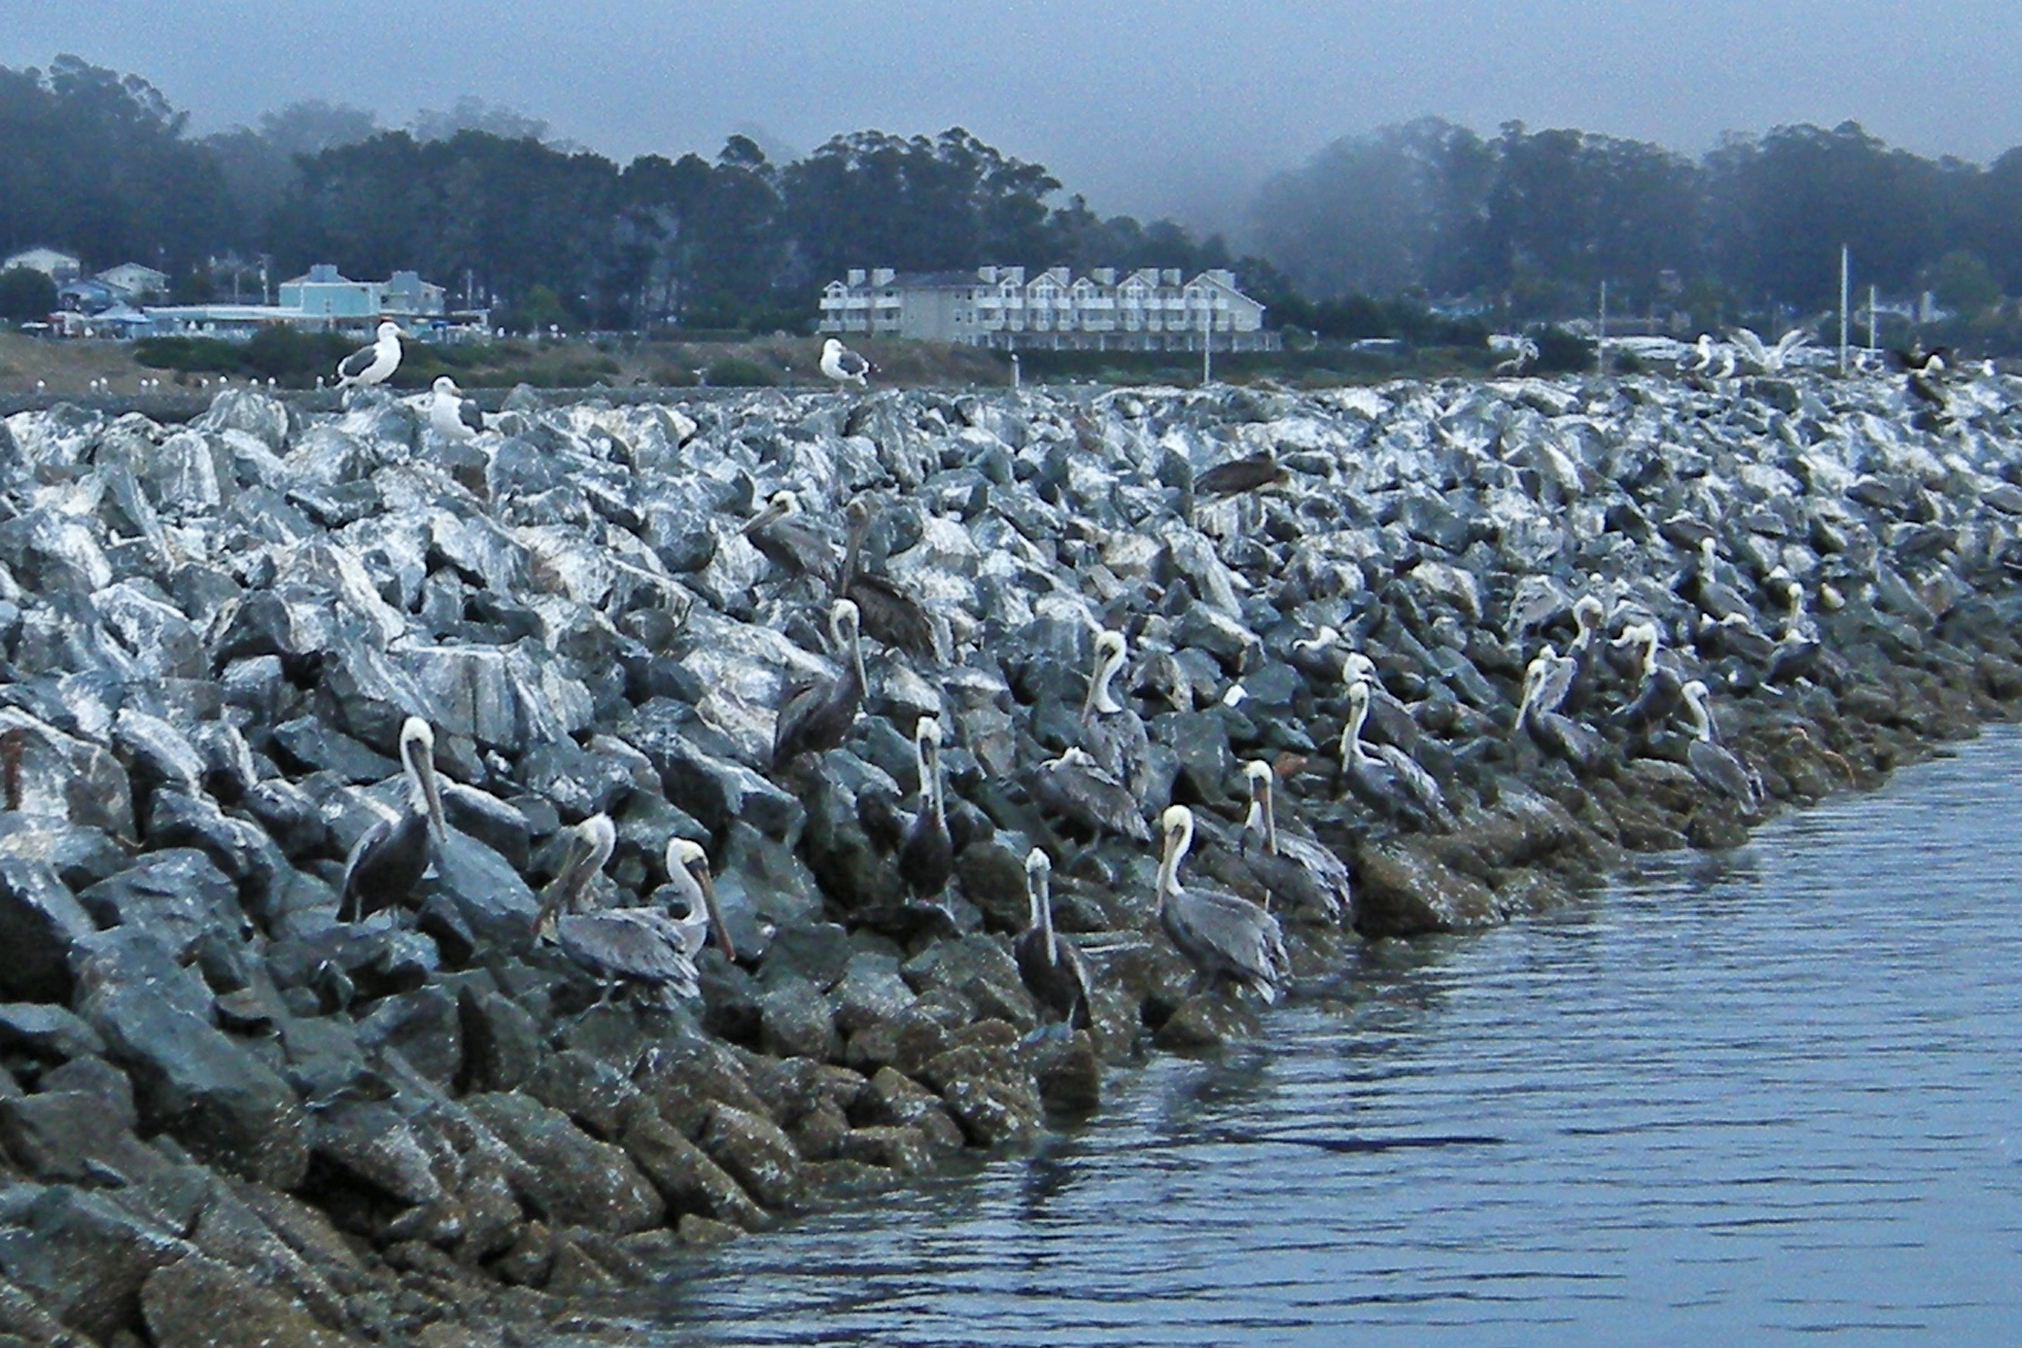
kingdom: Animalia
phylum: Chordata
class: Aves
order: Pelecaniformes
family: Pelecanidae
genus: Pelecanus
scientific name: Pelecanus occidentalis
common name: Brown pelican
